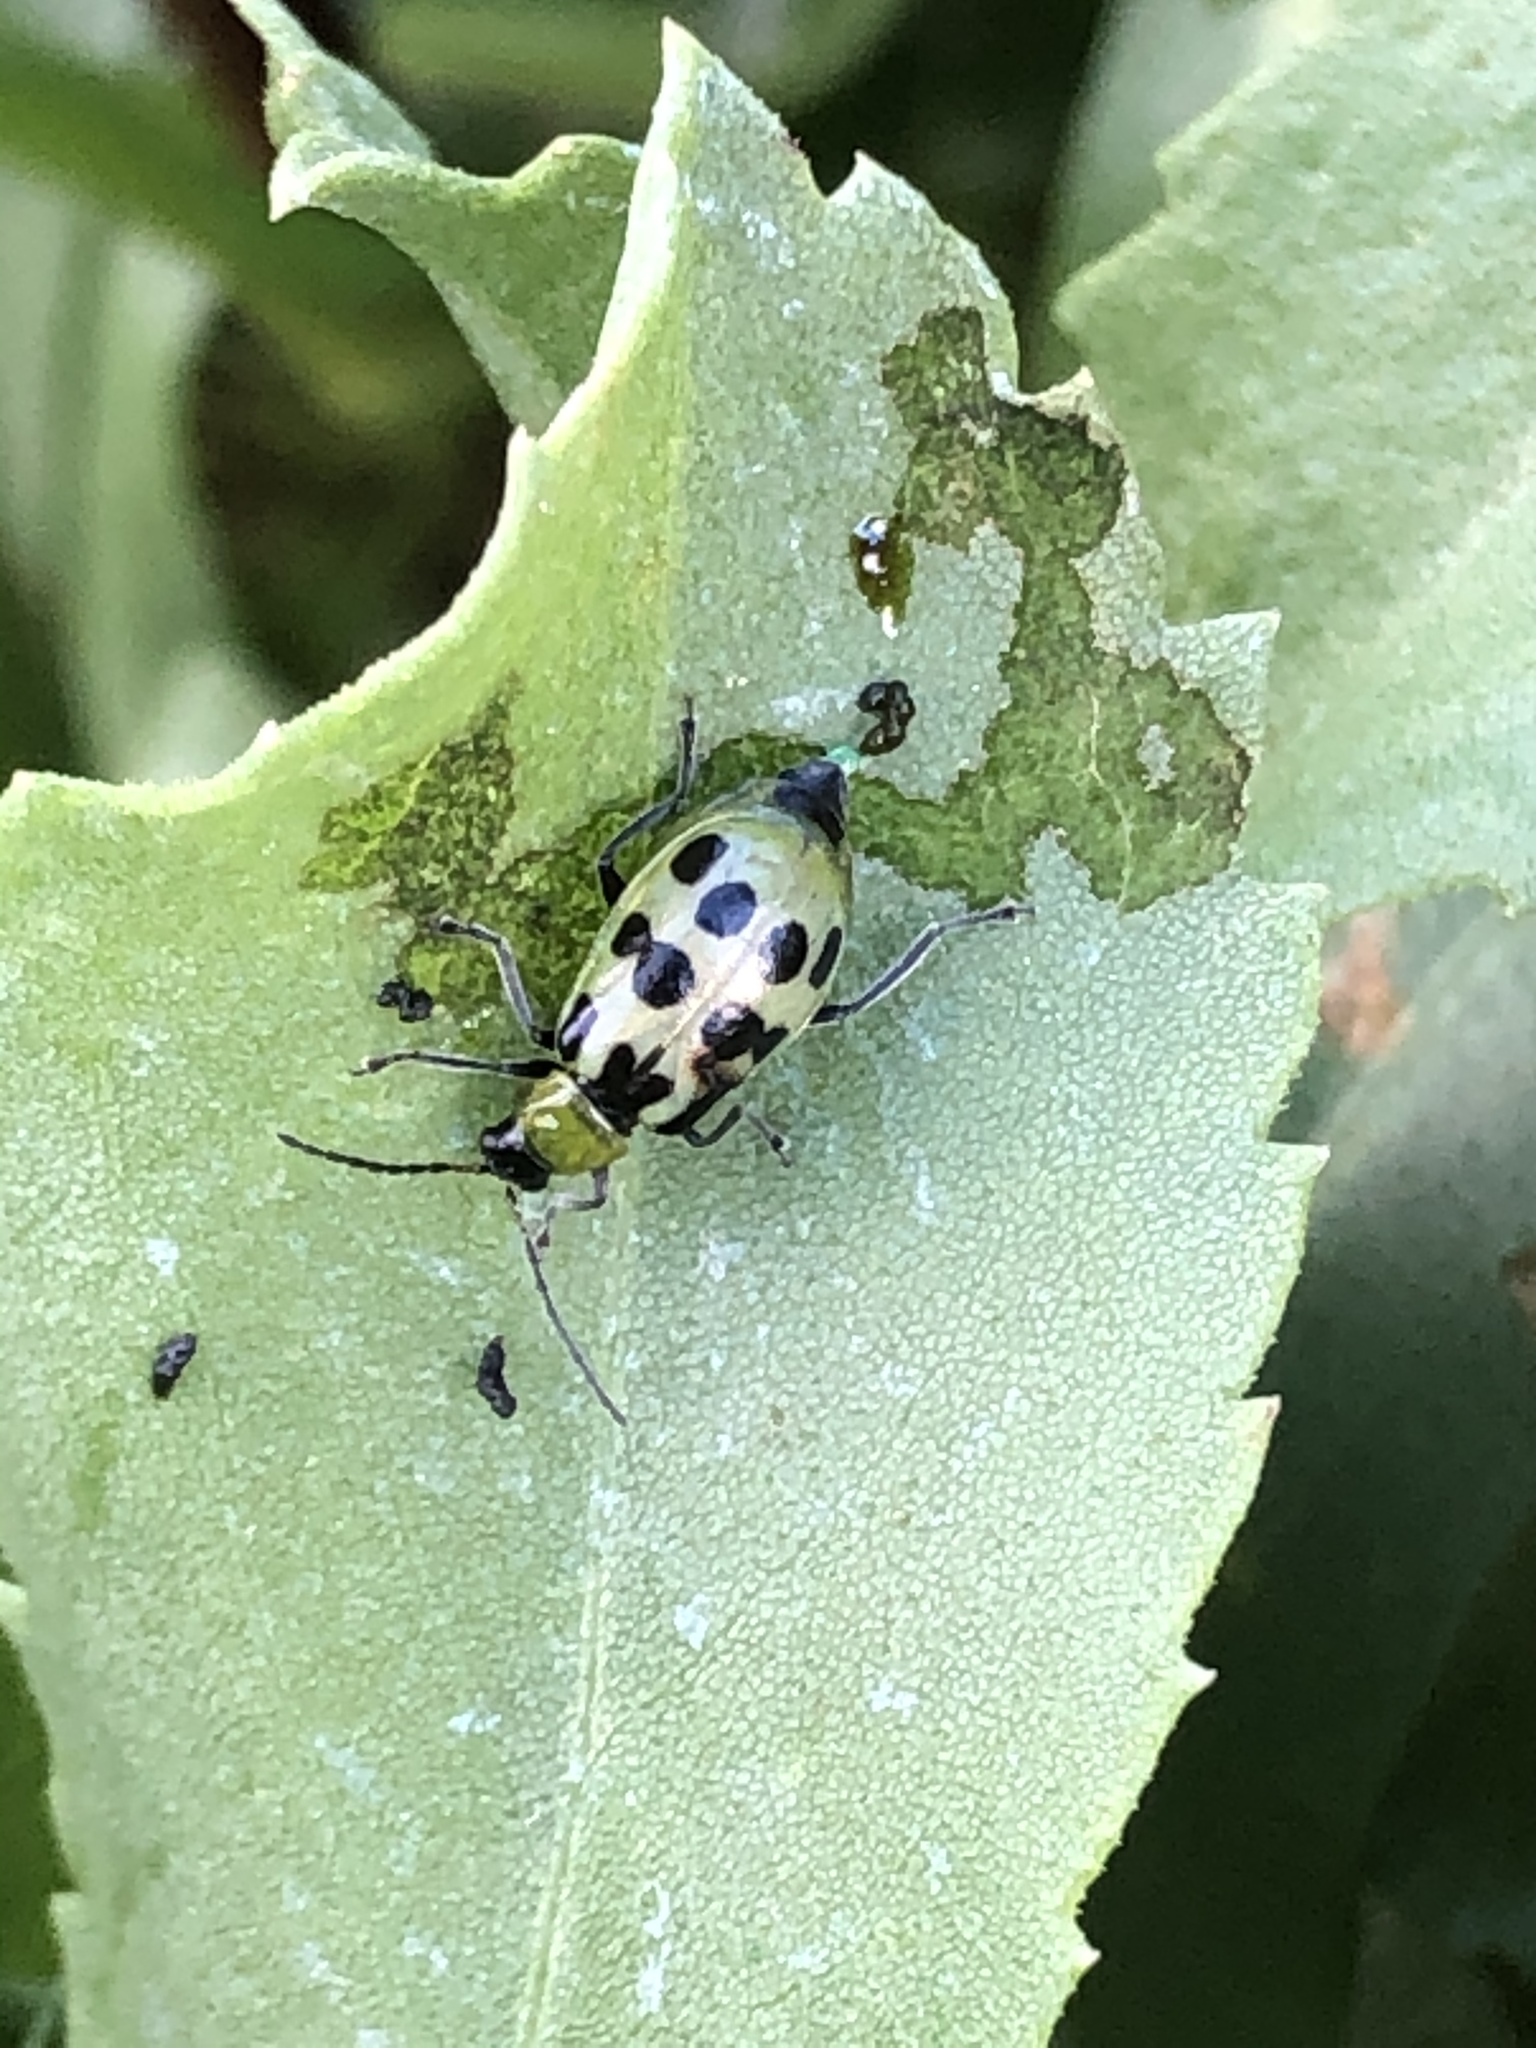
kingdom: Animalia
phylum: Arthropoda
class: Insecta
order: Coleoptera
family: Chrysomelidae
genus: Diabrotica
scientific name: Diabrotica undecimpunctata
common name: Spotted cucumber beetle
